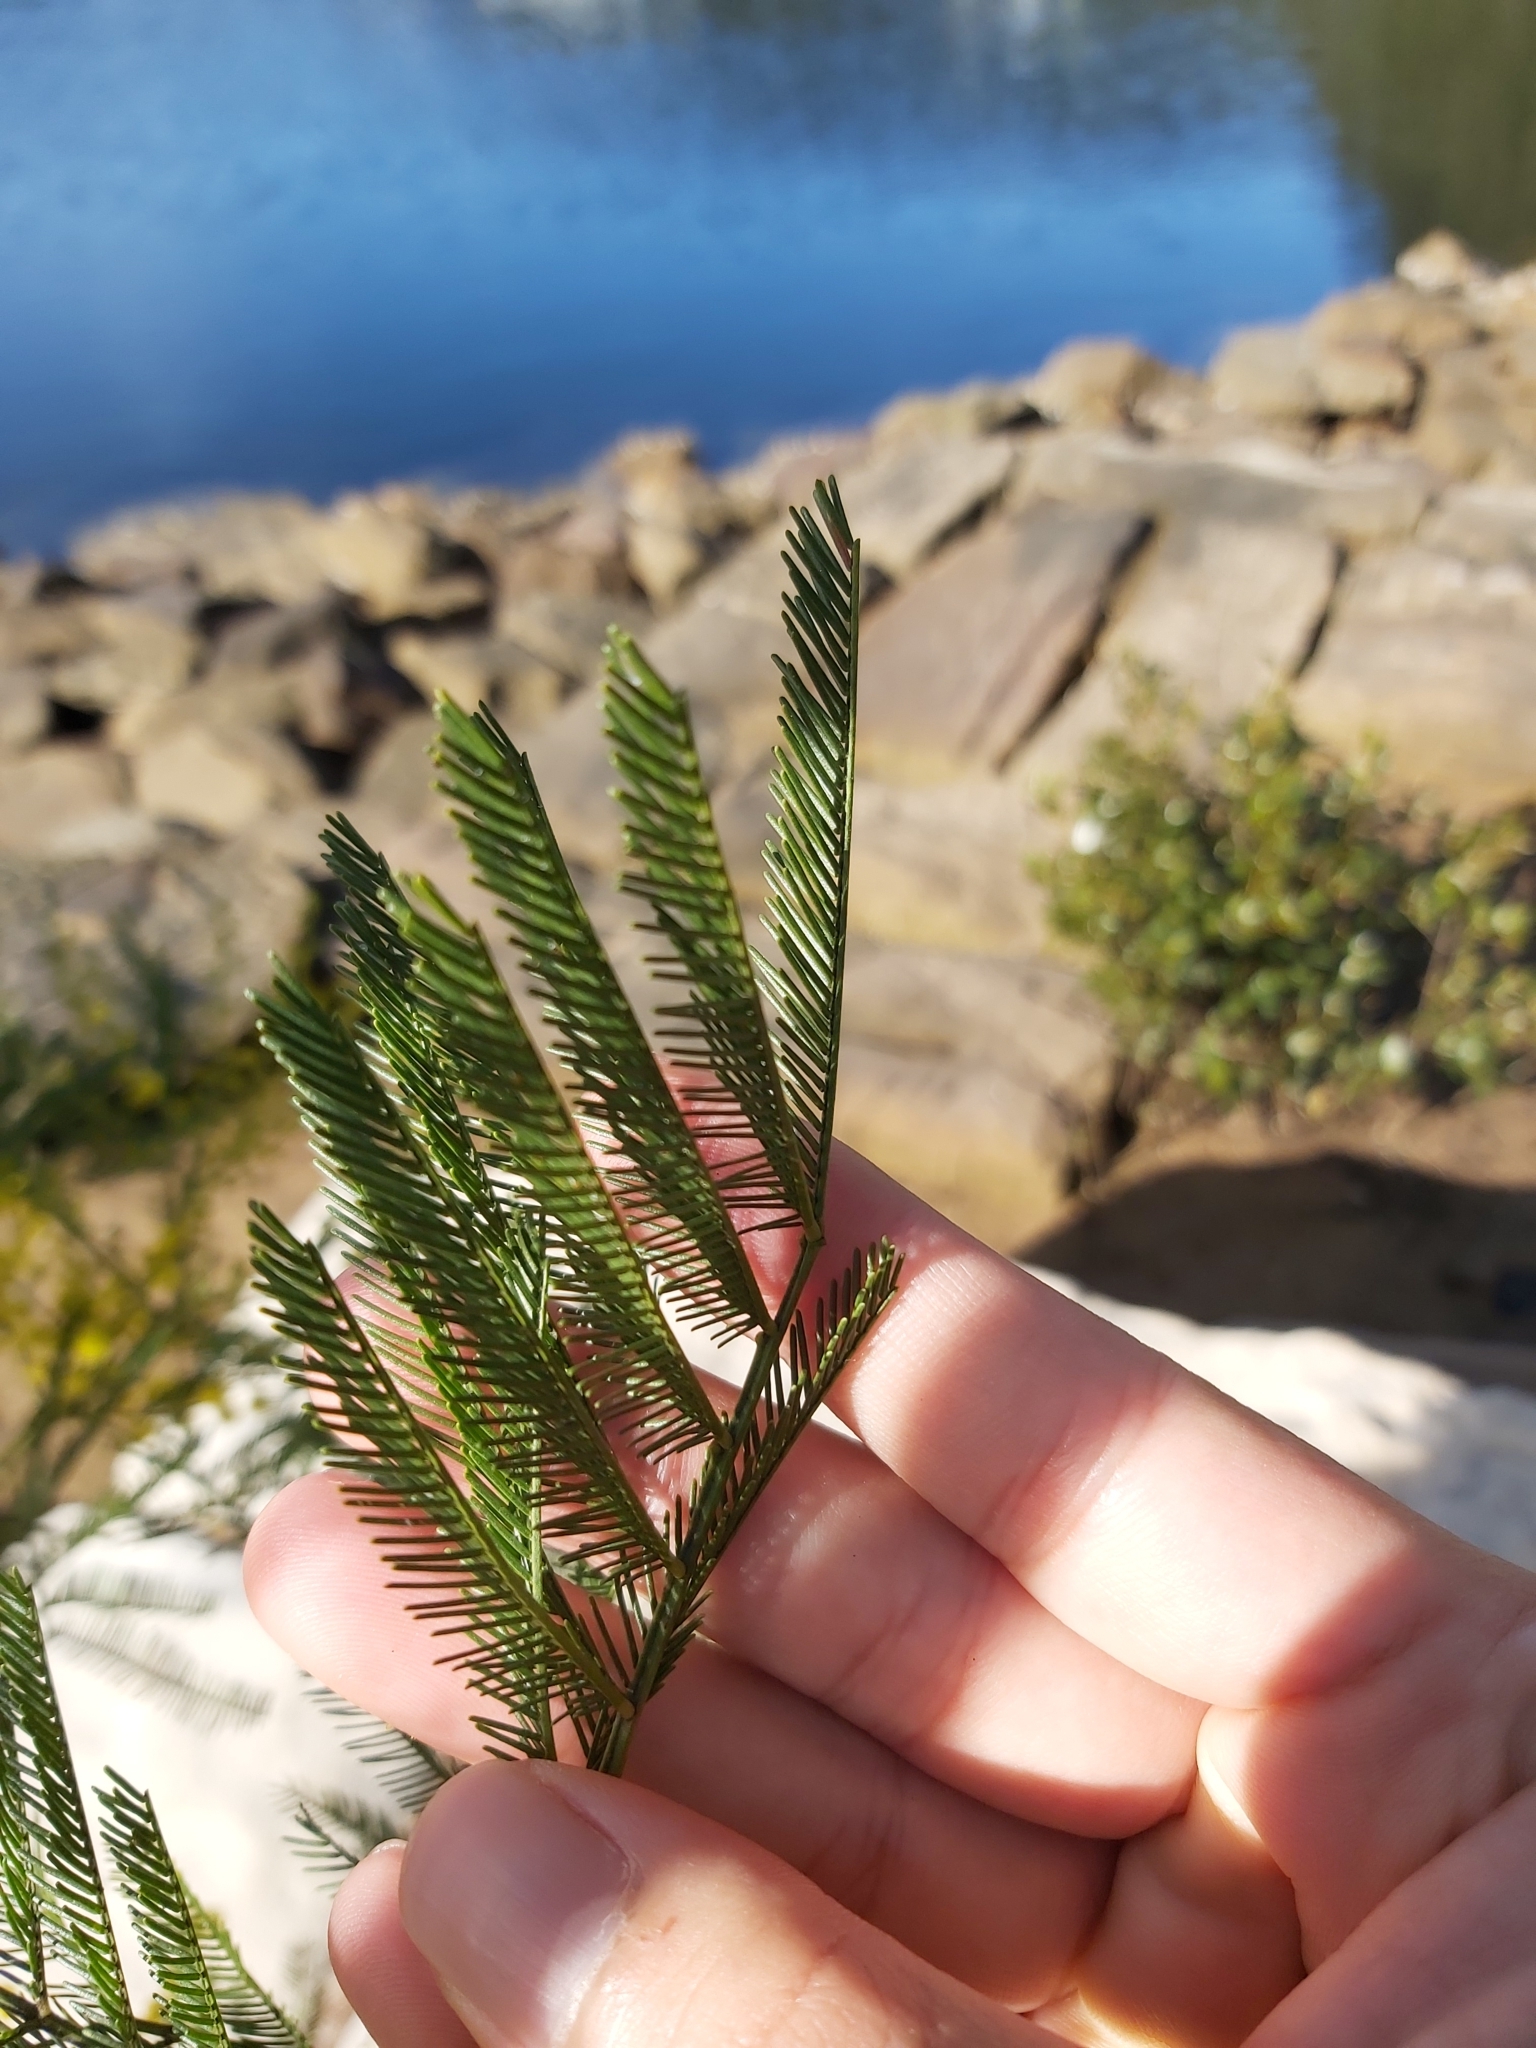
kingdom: Plantae
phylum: Tracheophyta
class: Magnoliopsida
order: Fabales
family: Fabaceae
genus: Acacia
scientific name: Acacia decurrens
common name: Green wattle
